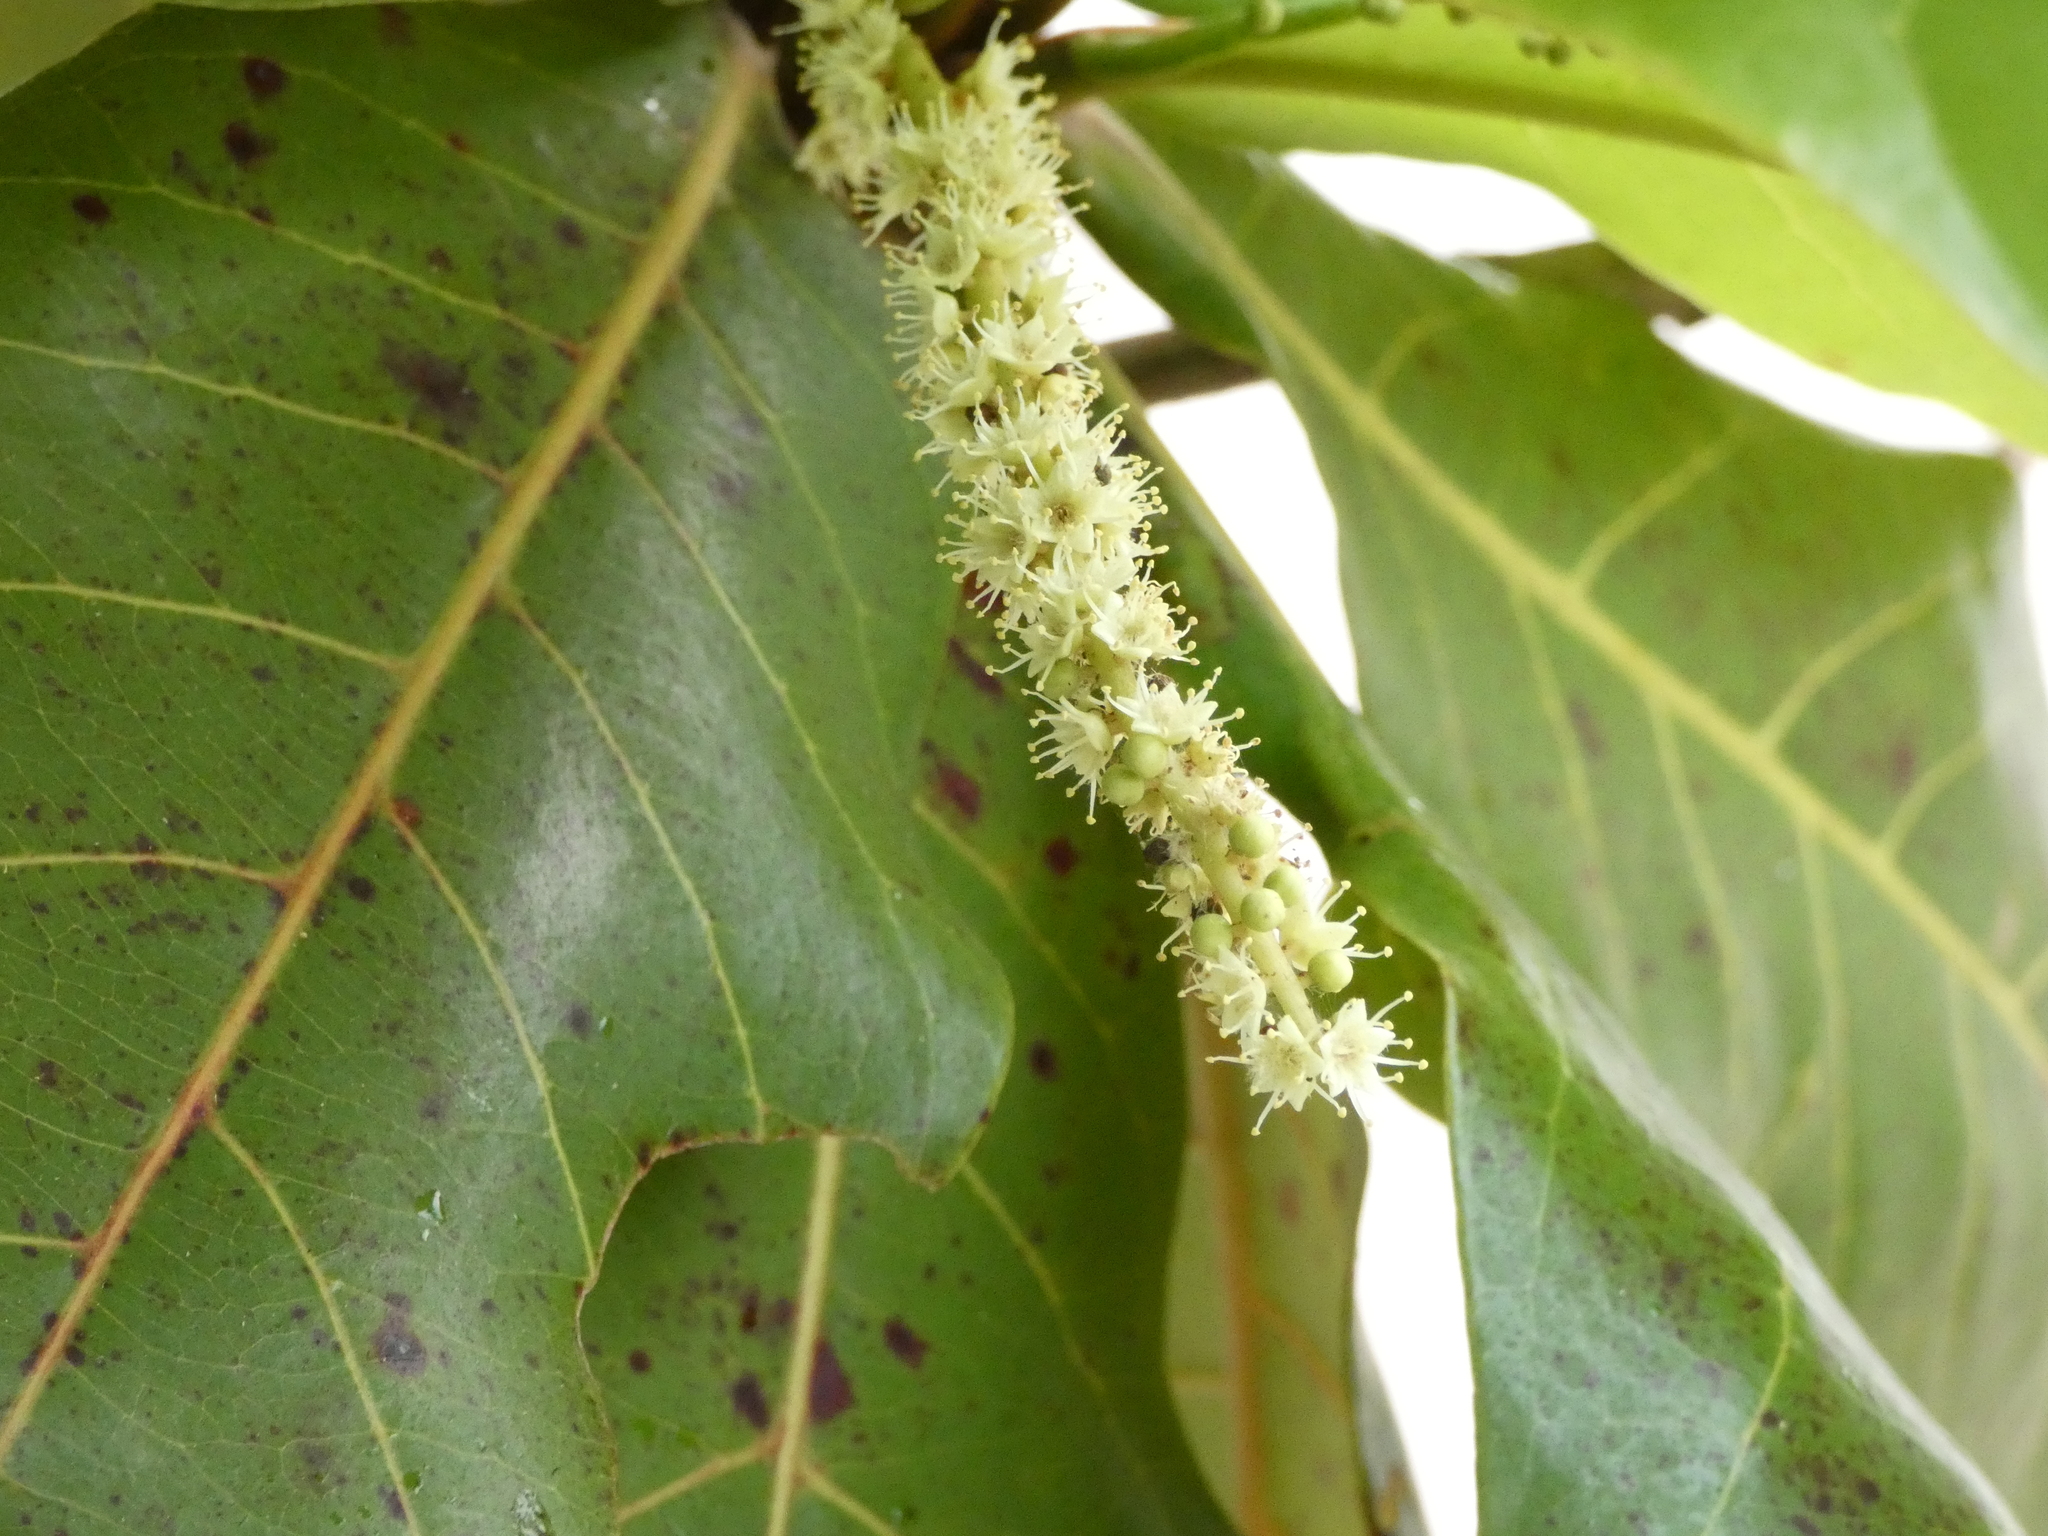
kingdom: Plantae
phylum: Tracheophyta
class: Magnoliopsida
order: Myrtales
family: Combretaceae
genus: Terminalia
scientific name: Terminalia catappa
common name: Tropical almond
